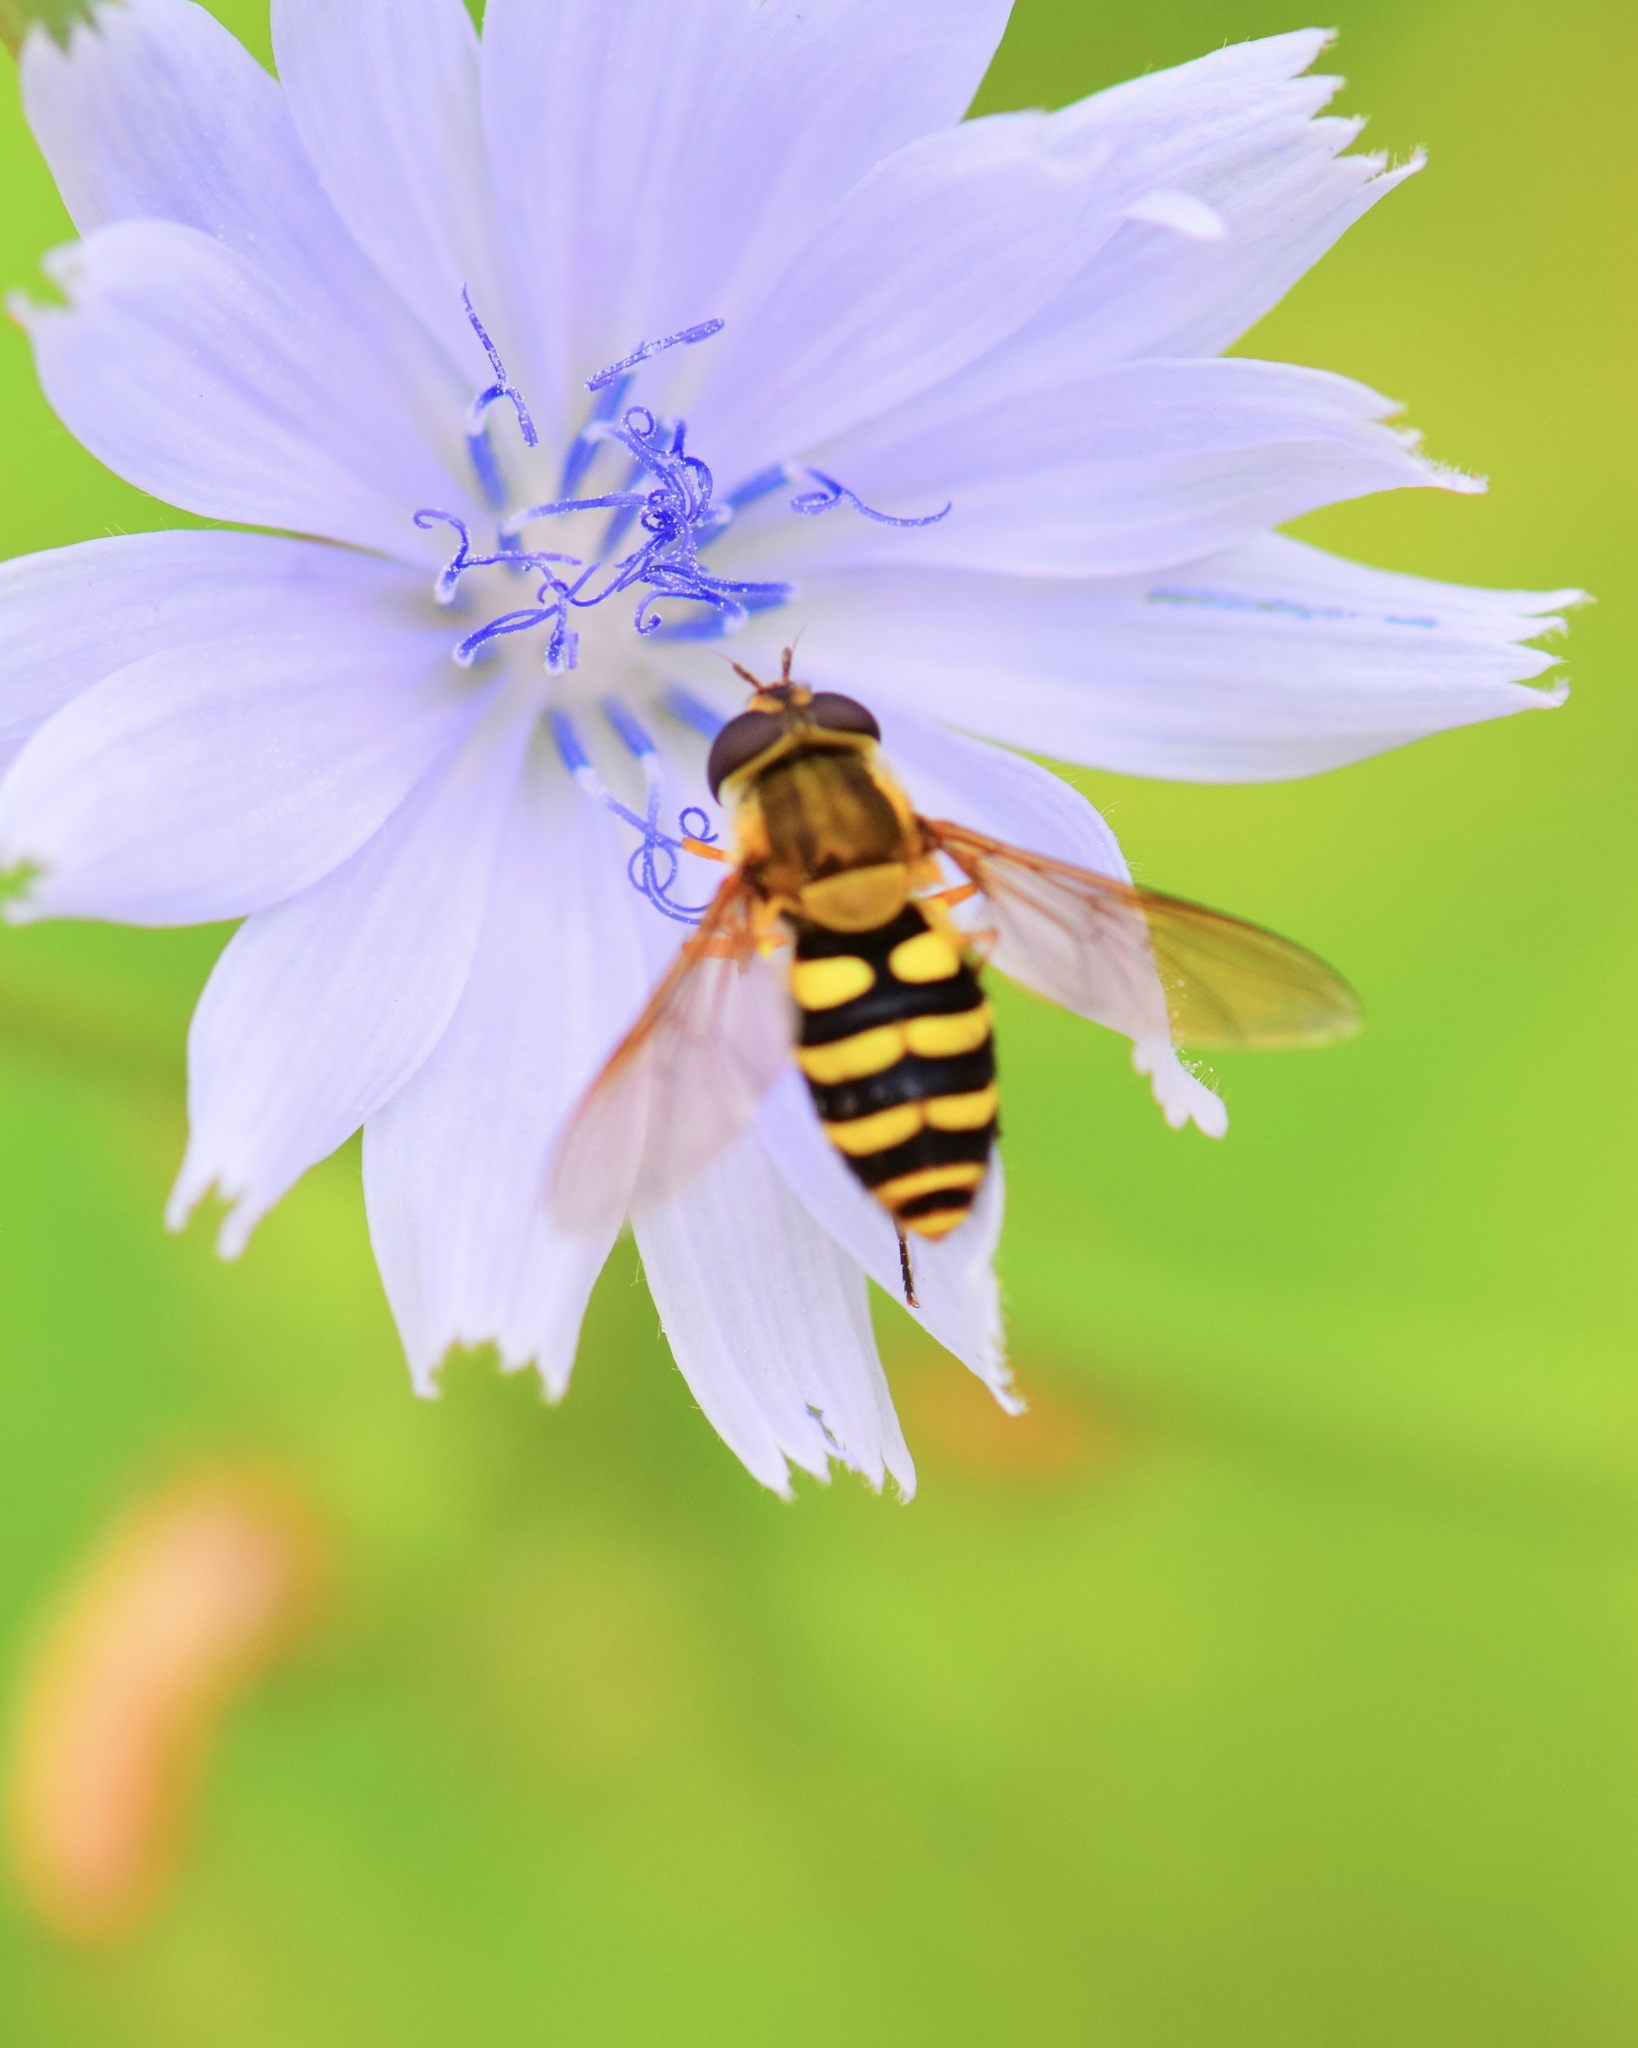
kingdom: Animalia
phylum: Arthropoda
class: Insecta
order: Diptera
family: Syrphidae
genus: Syrphus
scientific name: Syrphus
